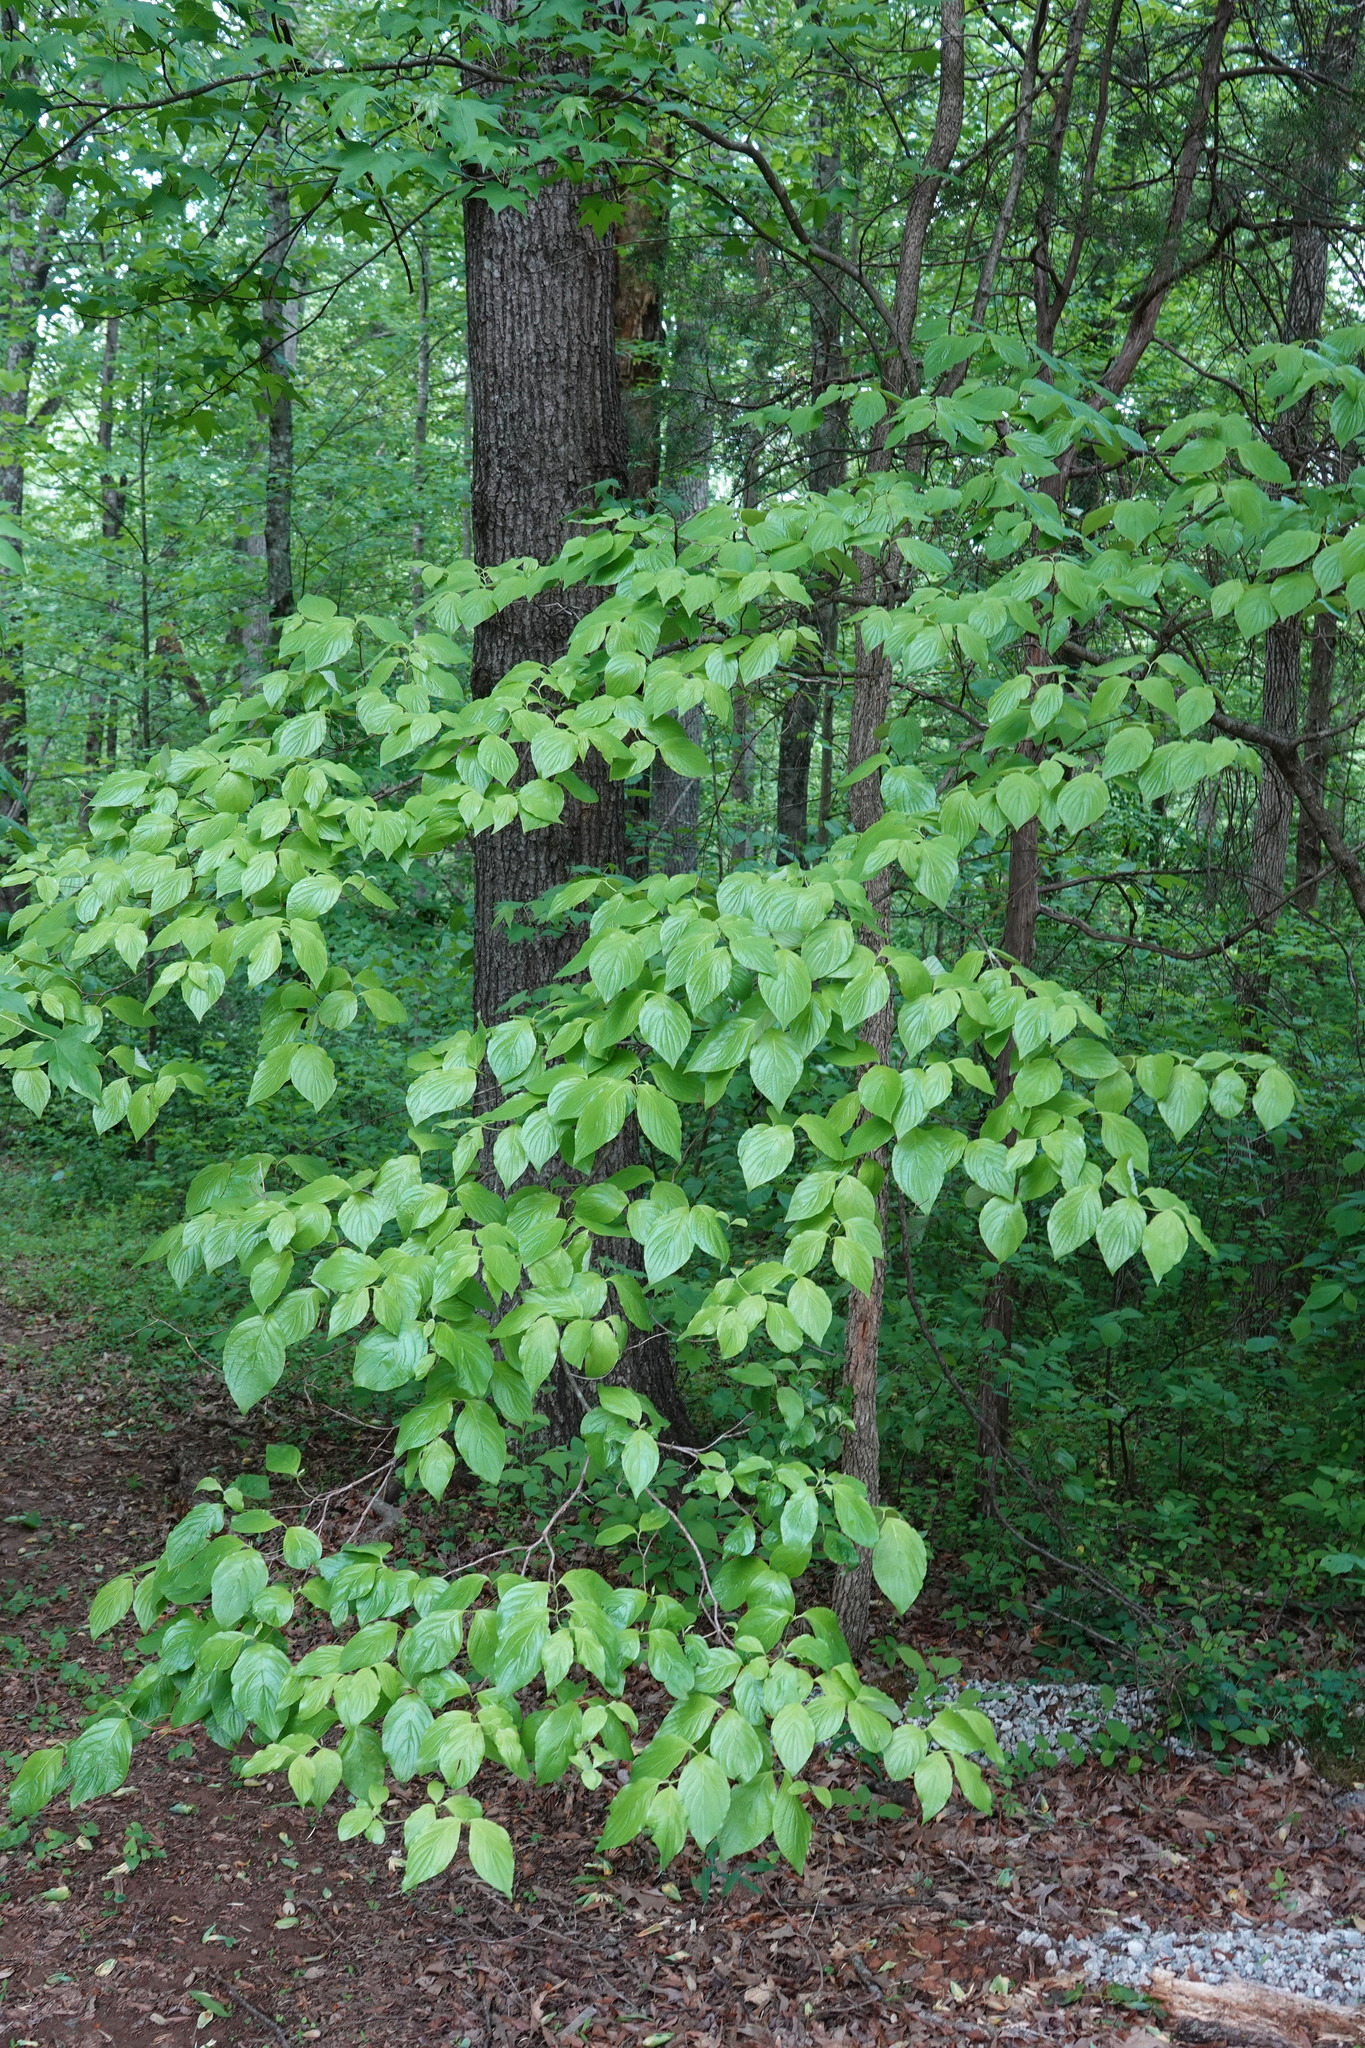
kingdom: Plantae
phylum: Tracheophyta
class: Magnoliopsida
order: Cornales
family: Cornaceae
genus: Cornus
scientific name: Cornus florida
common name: Flowering dogwood
